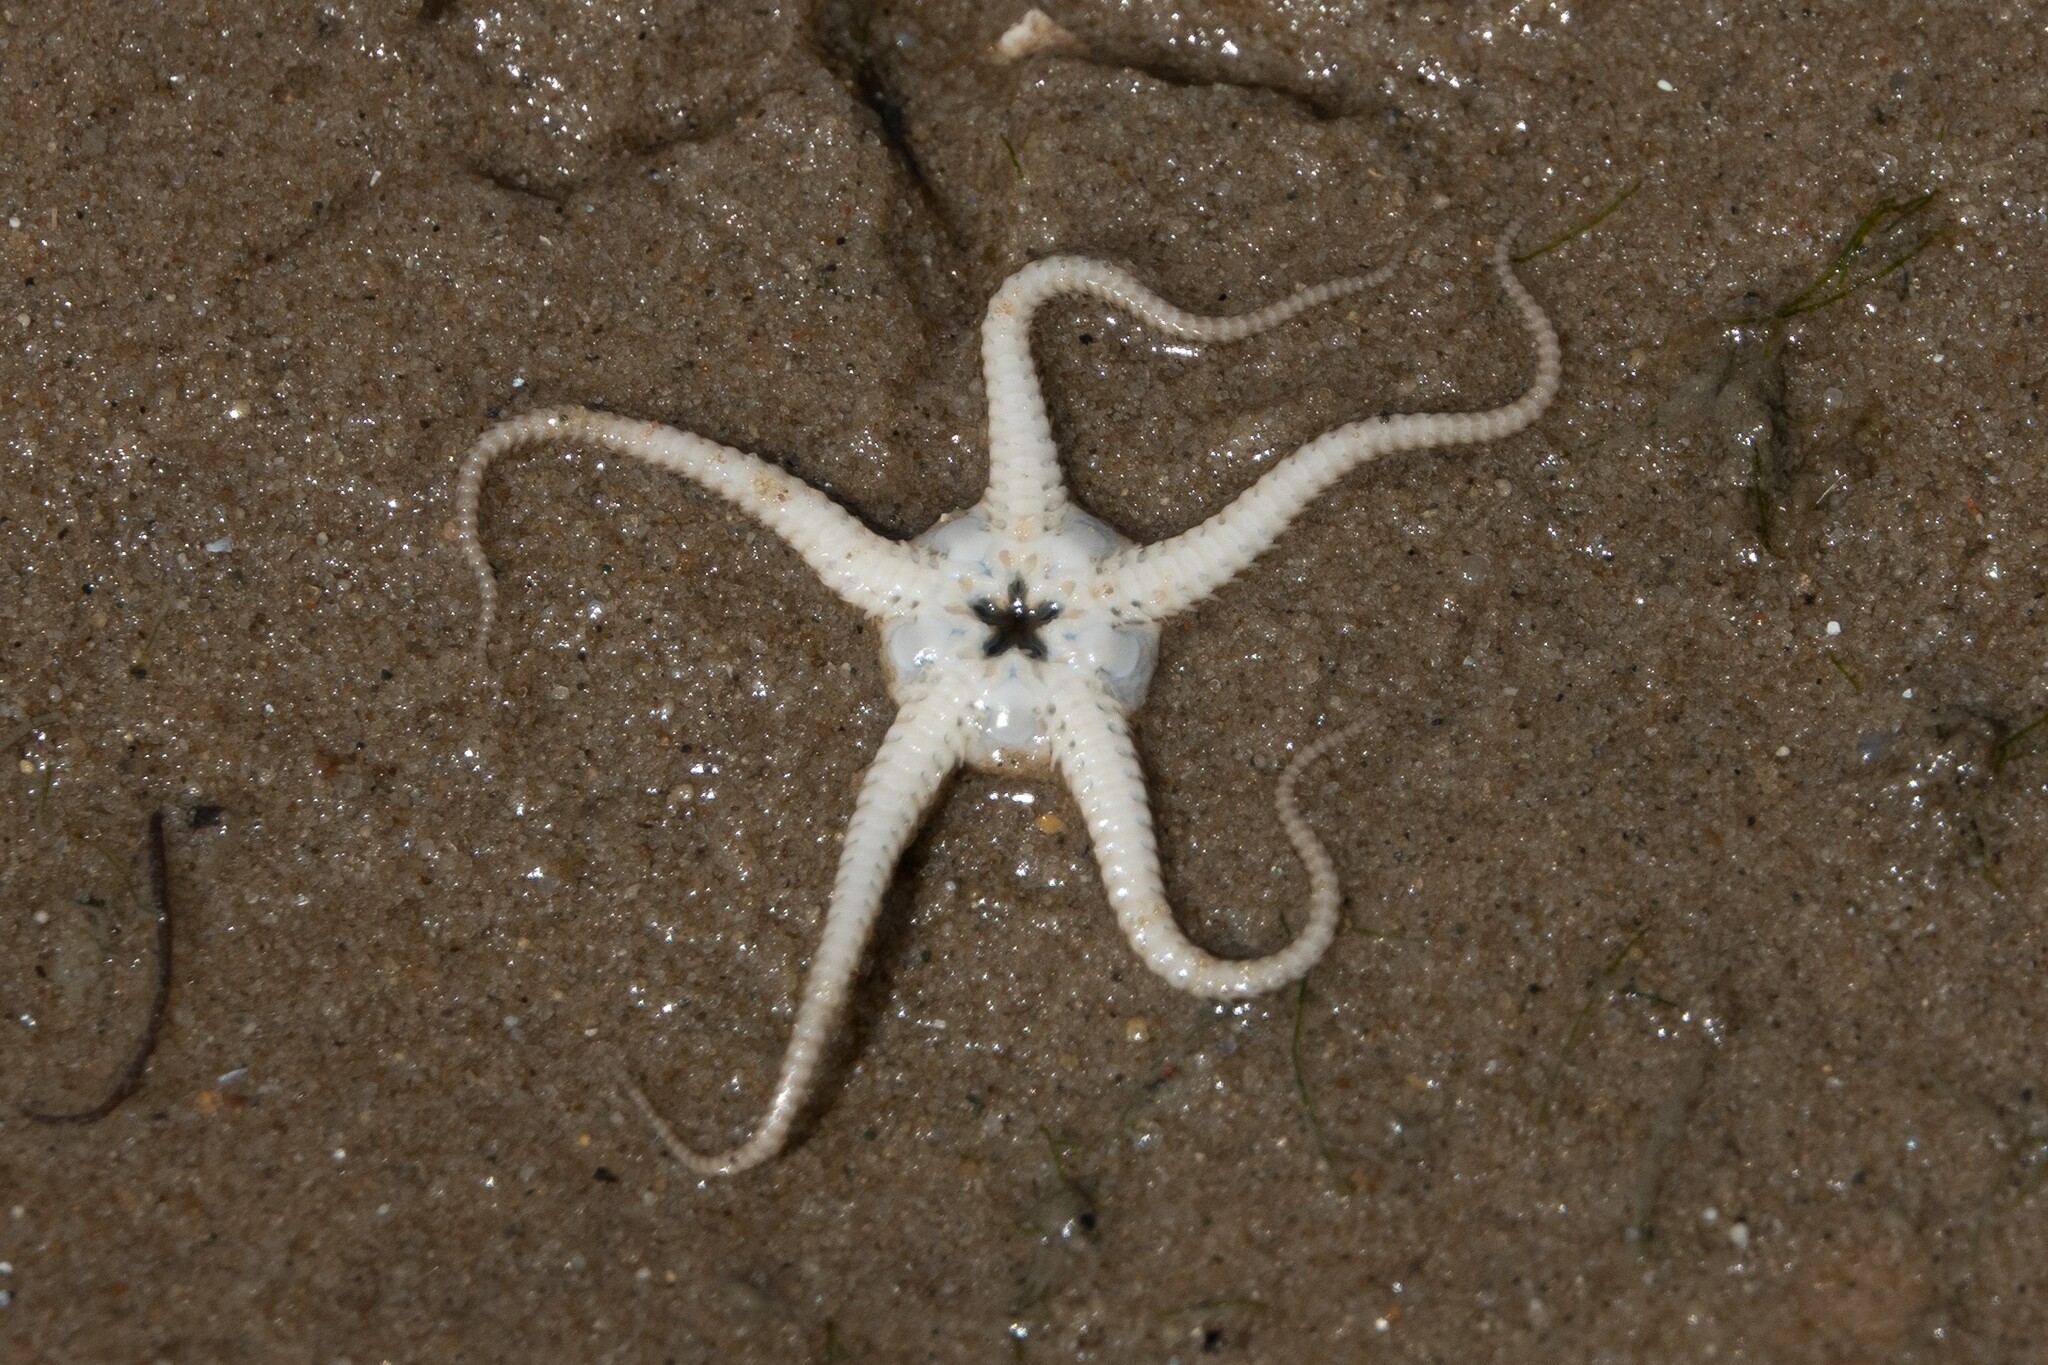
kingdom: Animalia
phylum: Echinodermata
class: Ophiuroidea
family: Ophiuridae
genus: Ophiura
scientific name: Ophiura ophiura
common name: Serpent star
